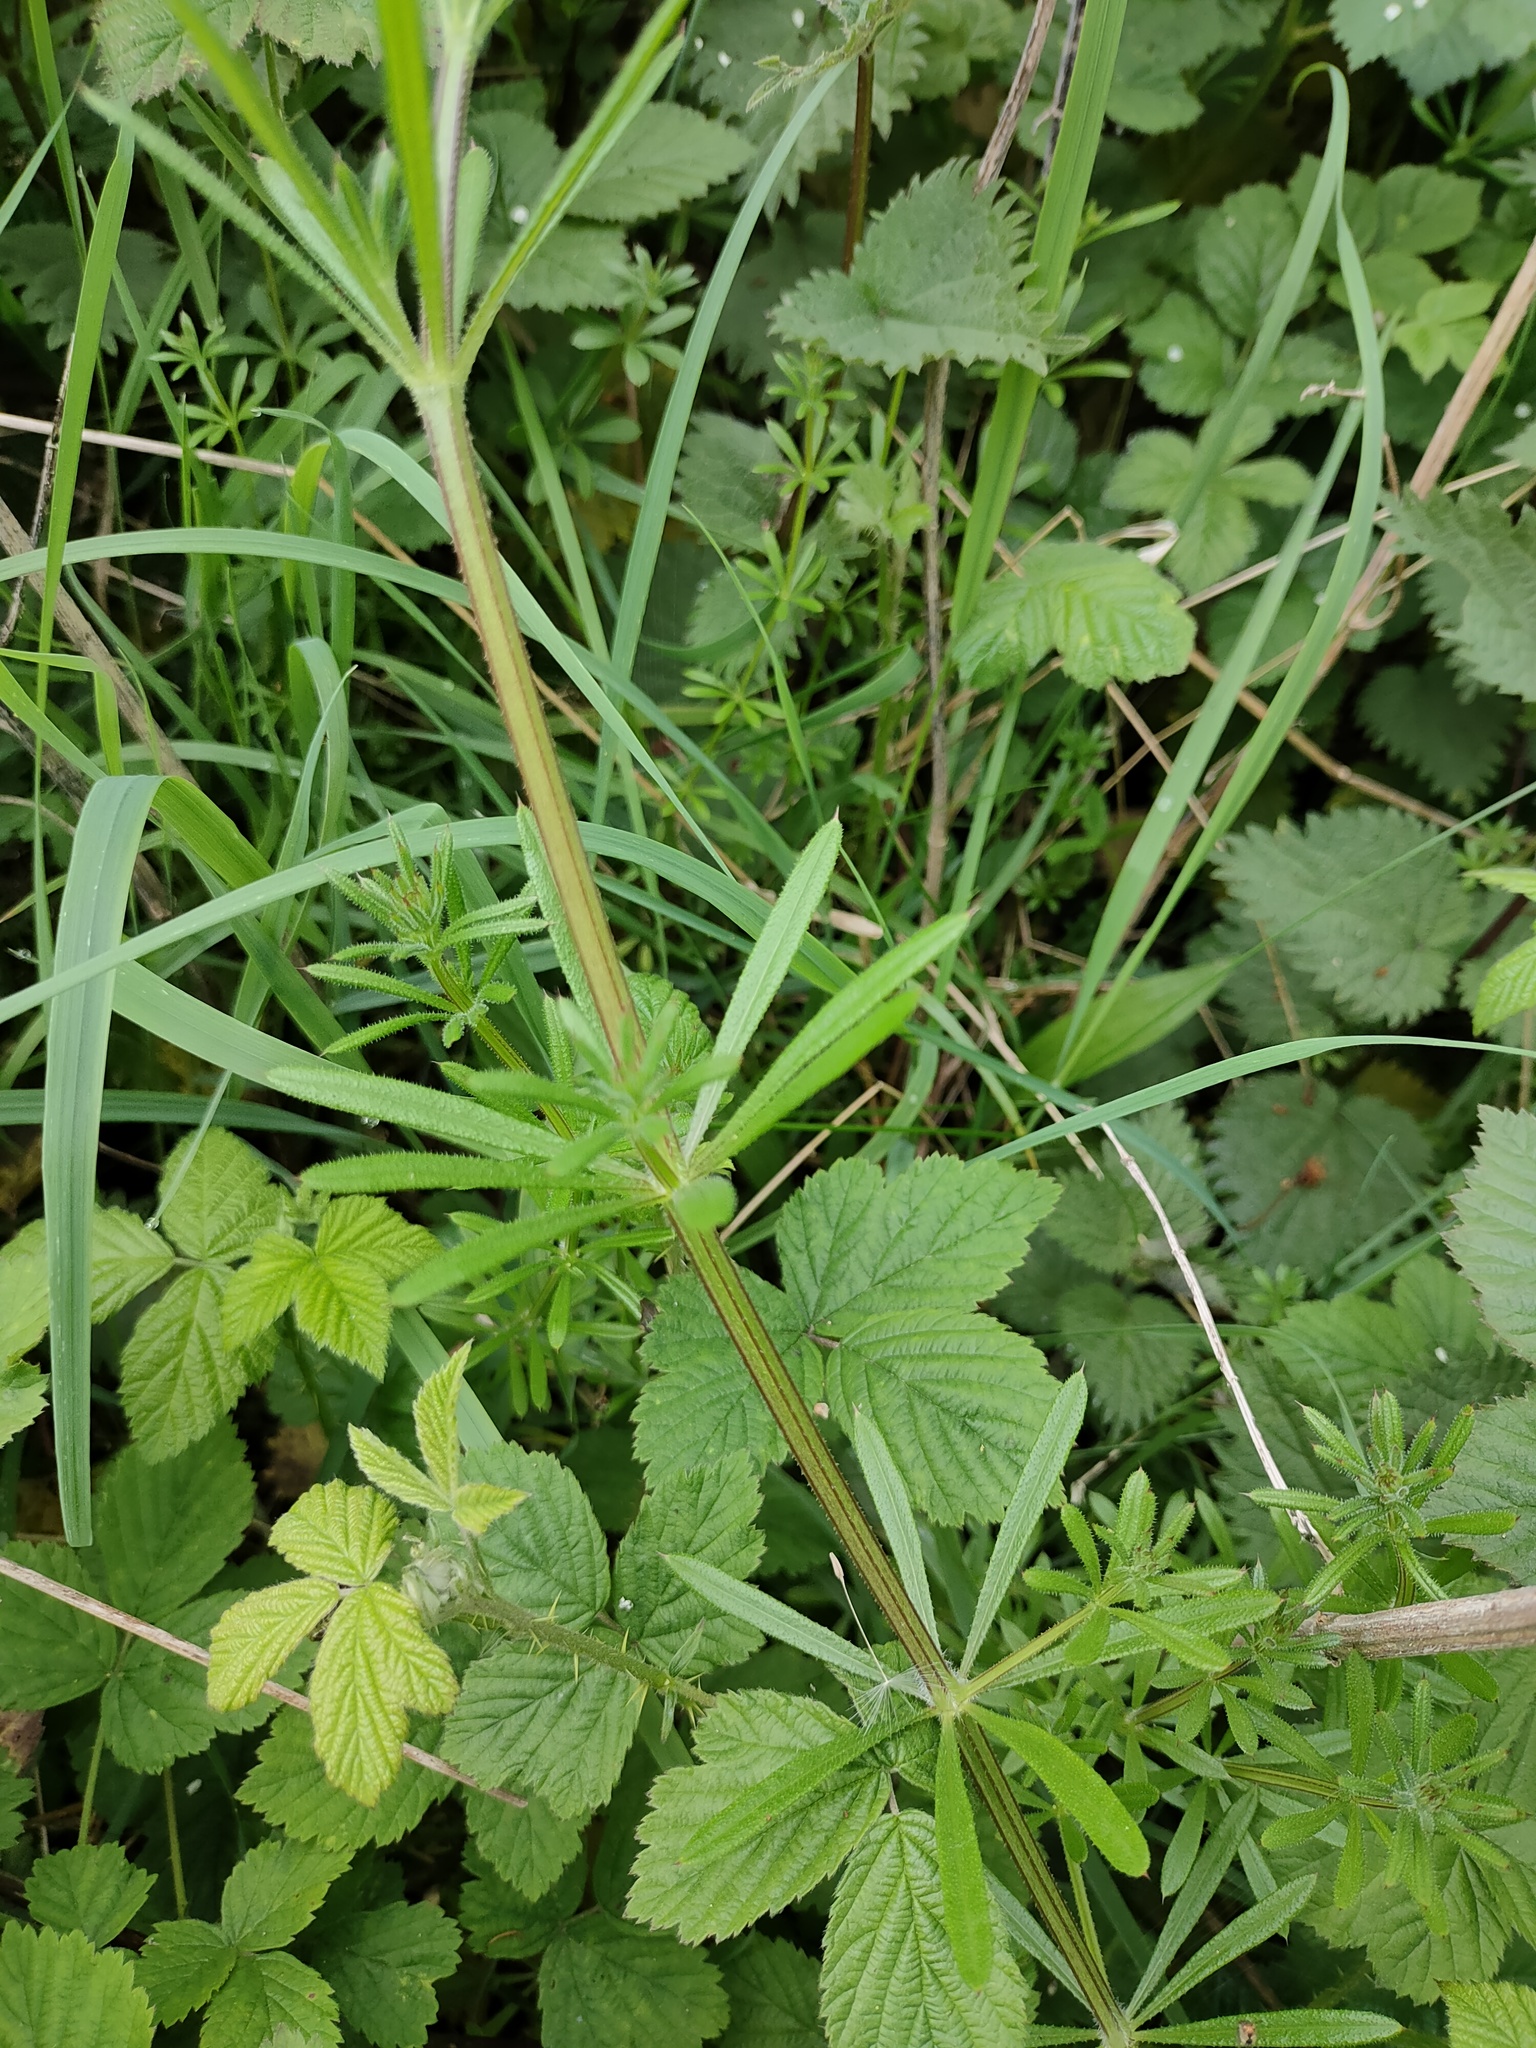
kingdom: Plantae
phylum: Tracheophyta
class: Magnoliopsida
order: Gentianales
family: Rubiaceae
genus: Galium
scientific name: Galium aparine
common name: Cleavers
